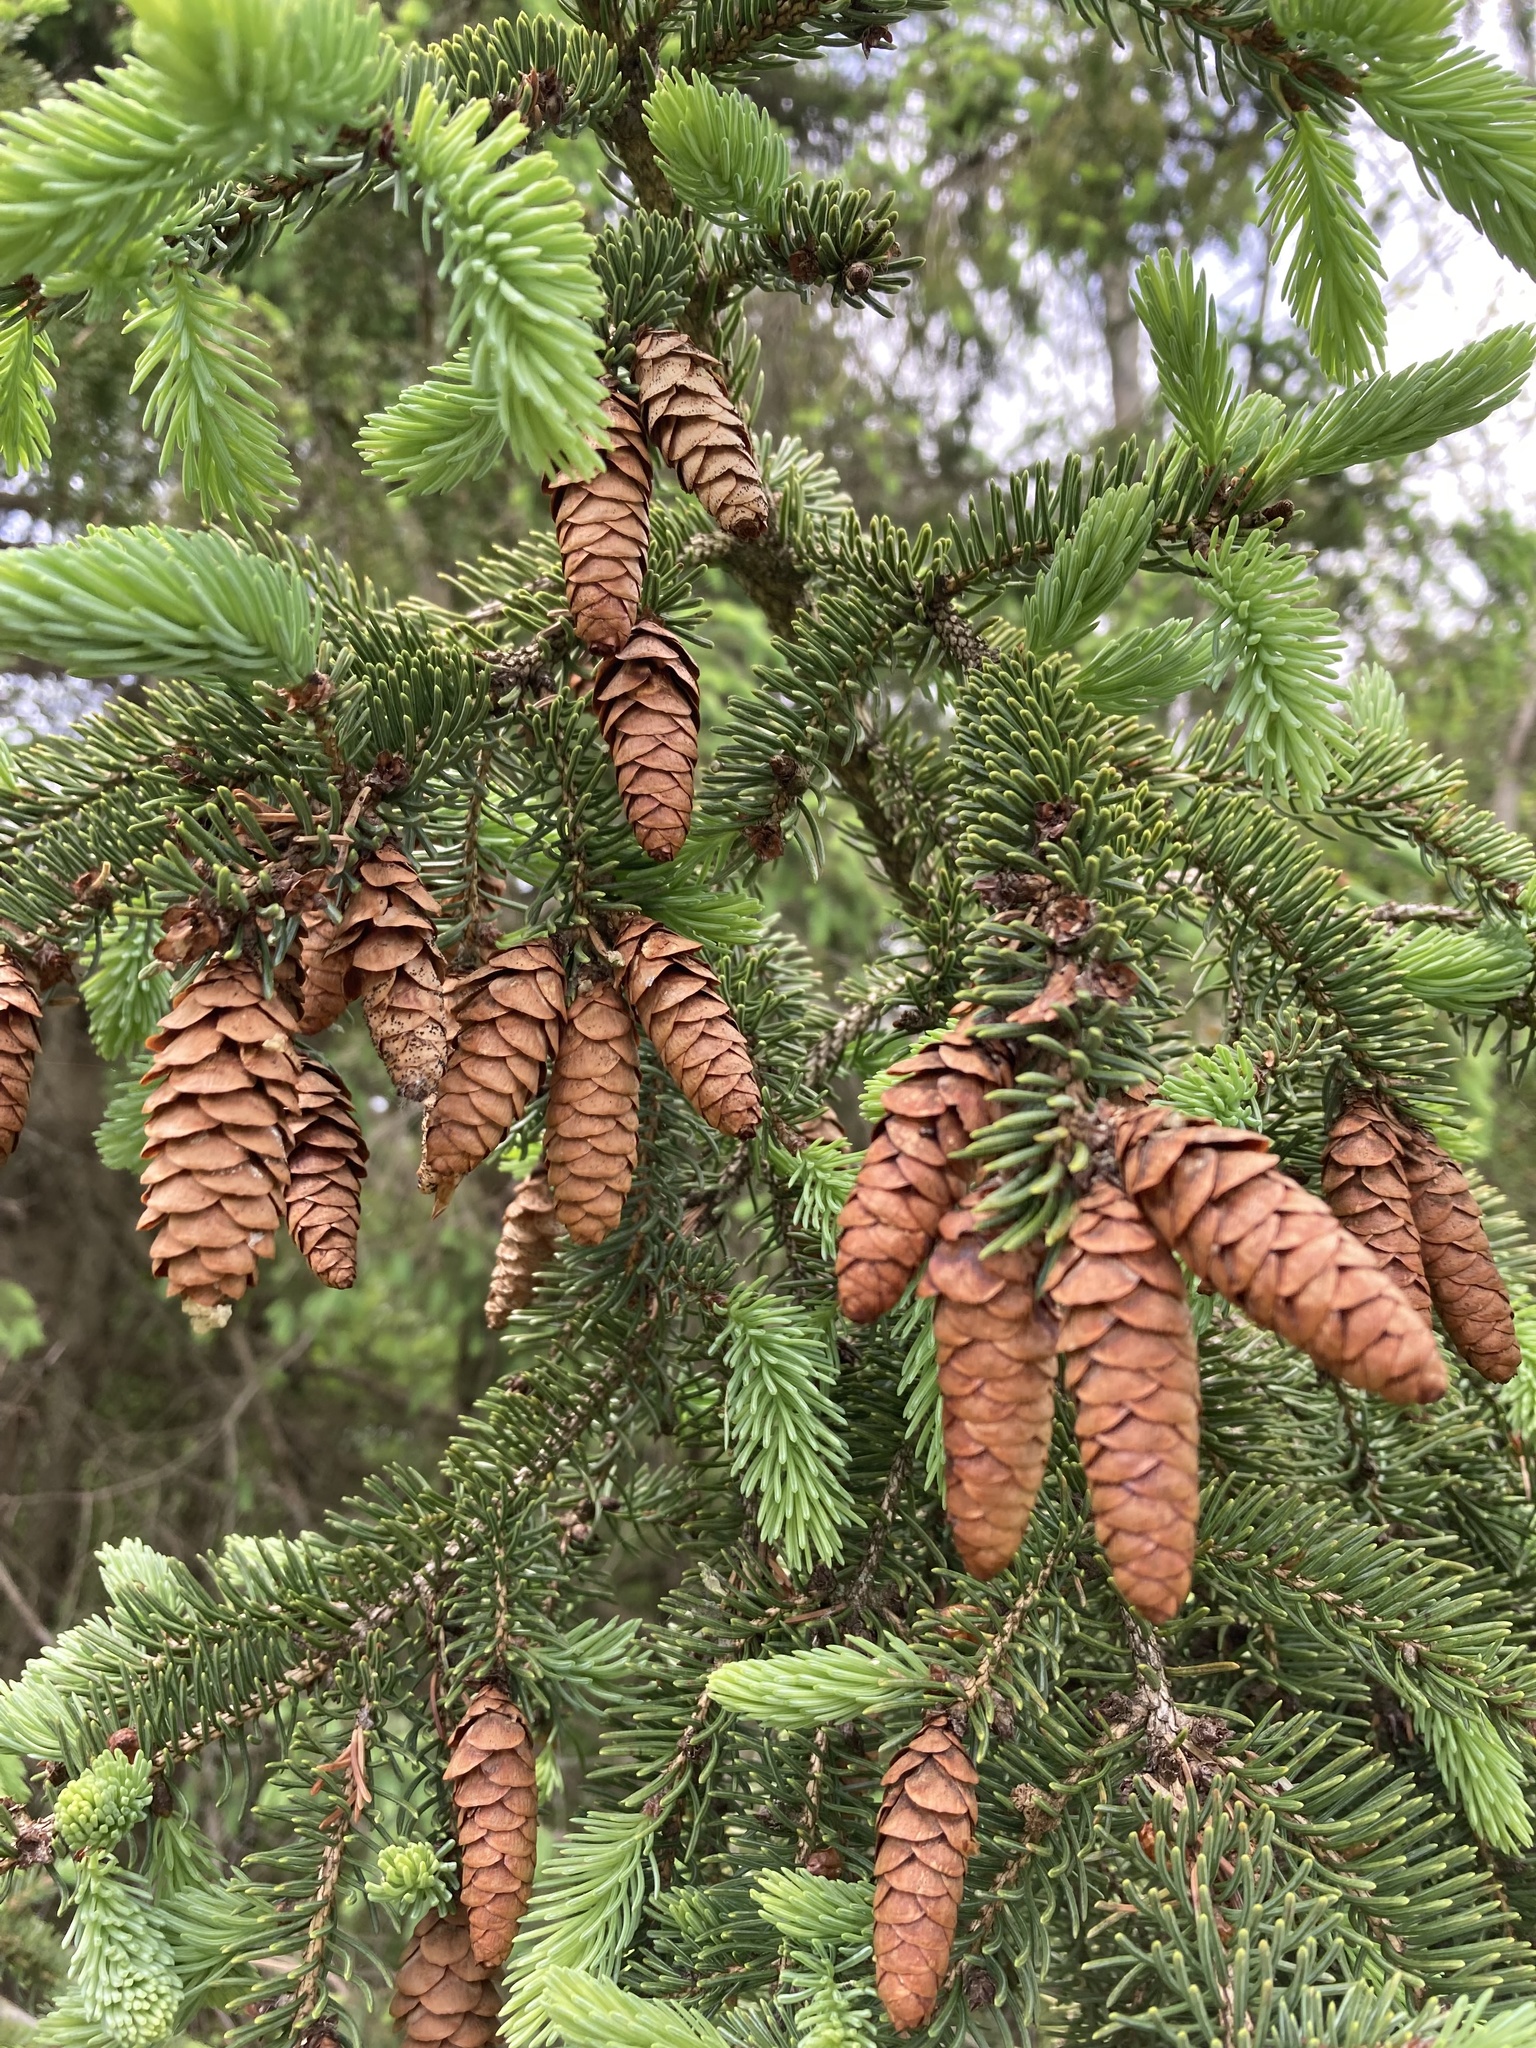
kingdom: Plantae
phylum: Tracheophyta
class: Pinopsida
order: Pinales
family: Pinaceae
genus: Picea
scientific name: Picea glauca
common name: White spruce
